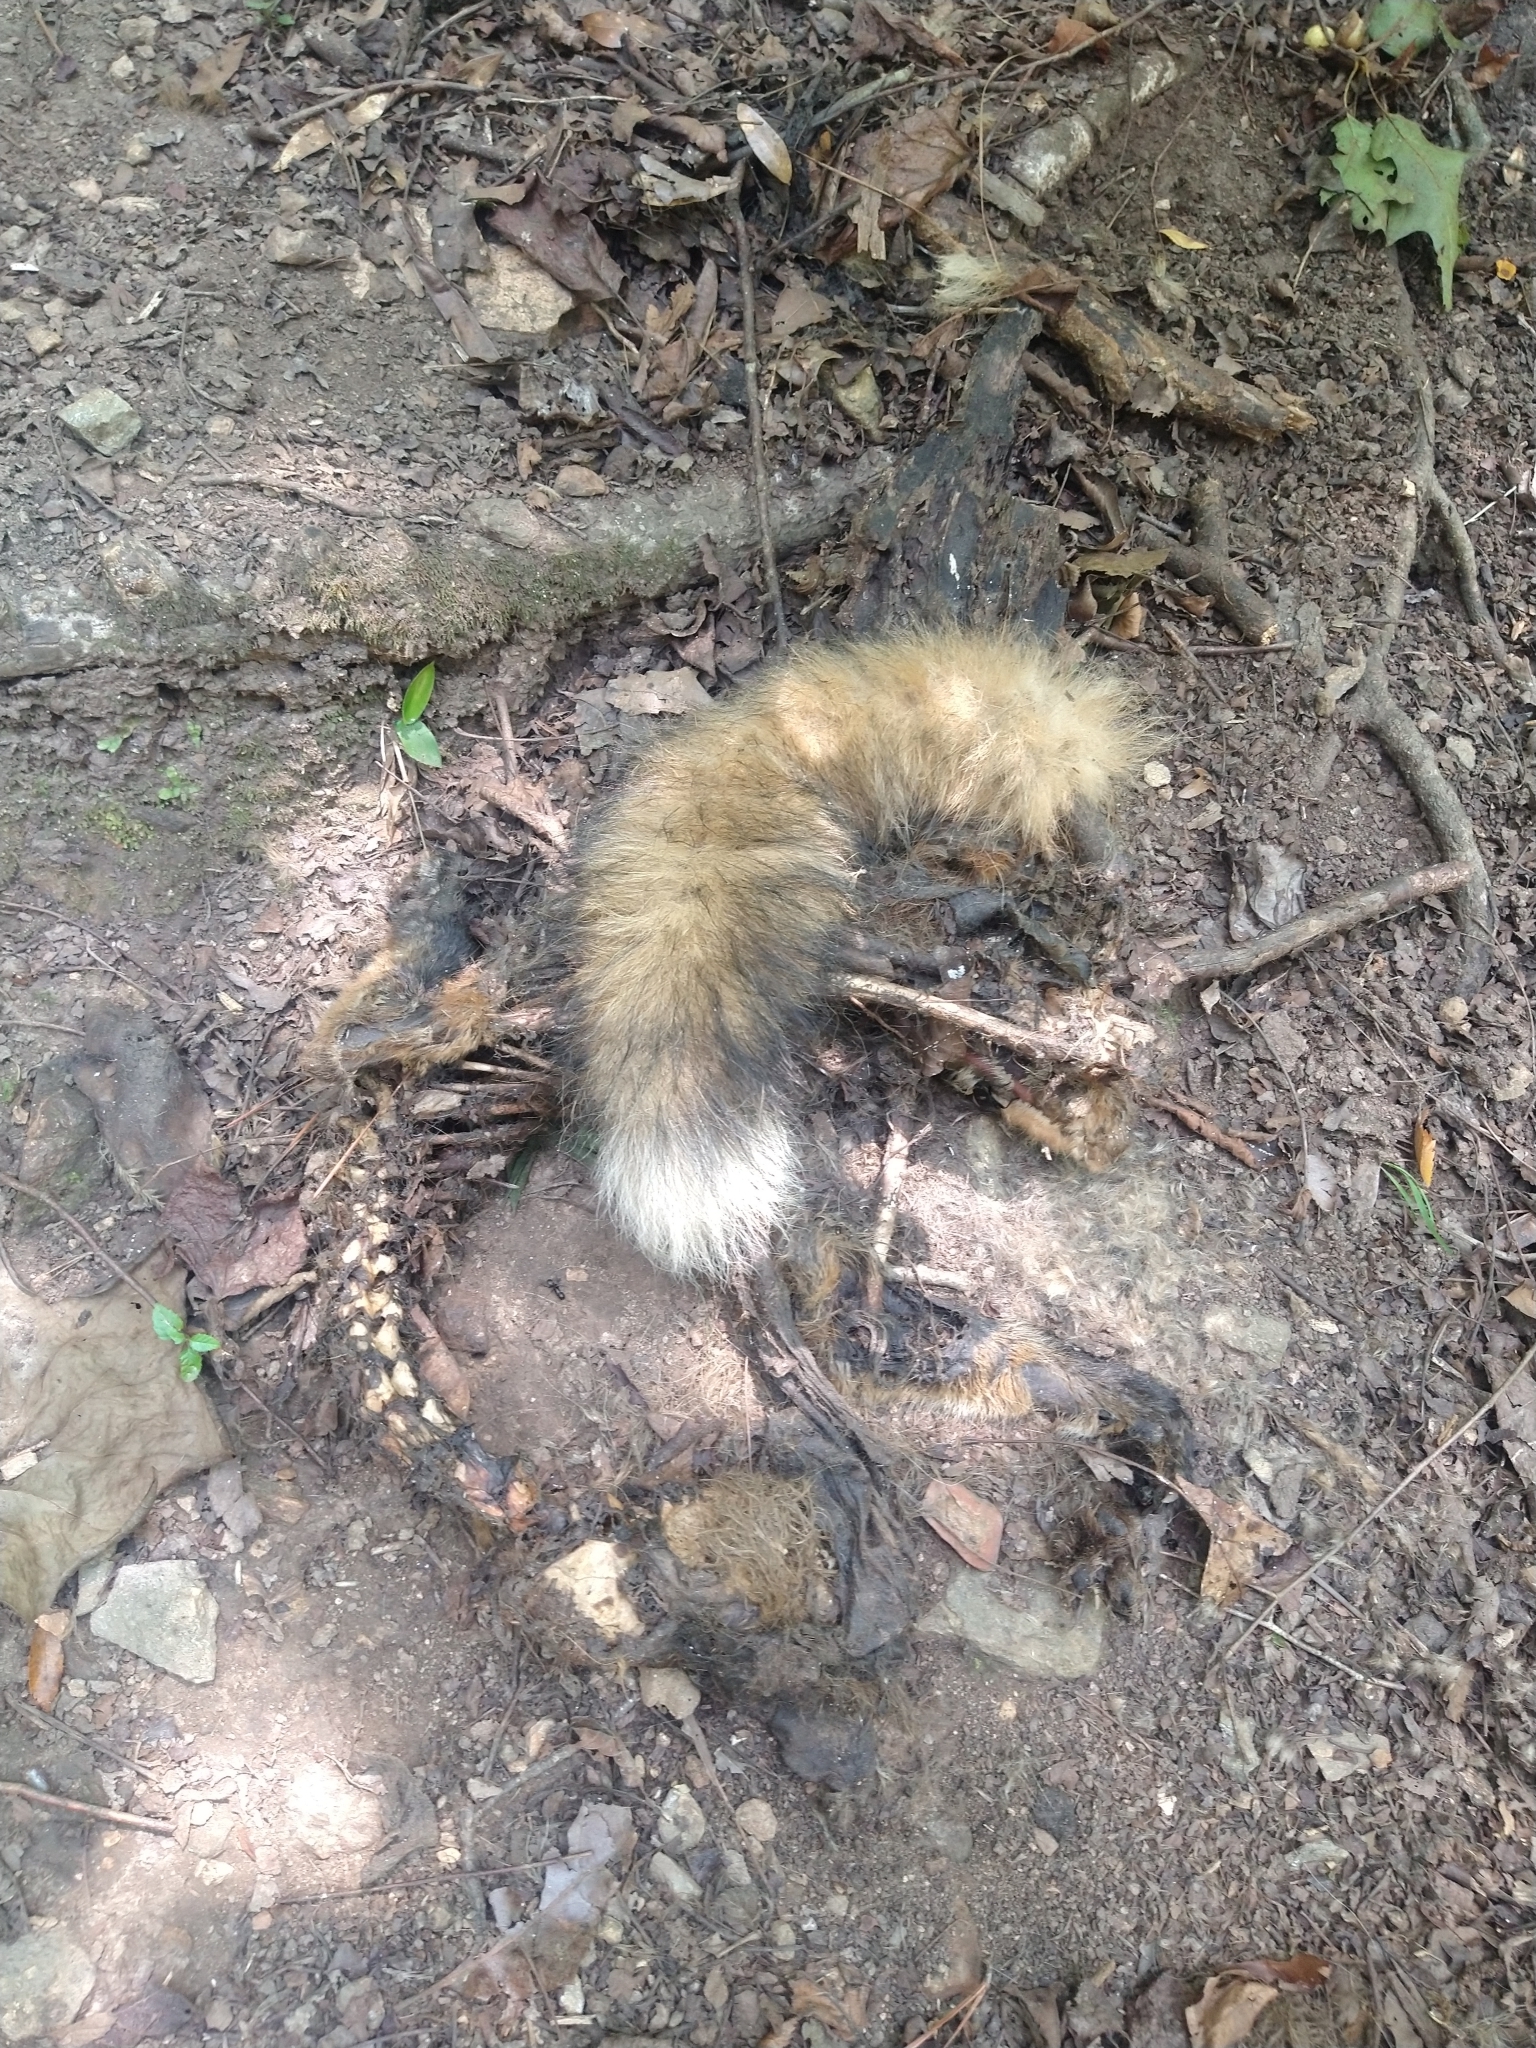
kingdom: Animalia
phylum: Chordata
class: Mammalia
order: Carnivora
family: Canidae
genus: Vulpes
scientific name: Vulpes vulpes
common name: Red fox
